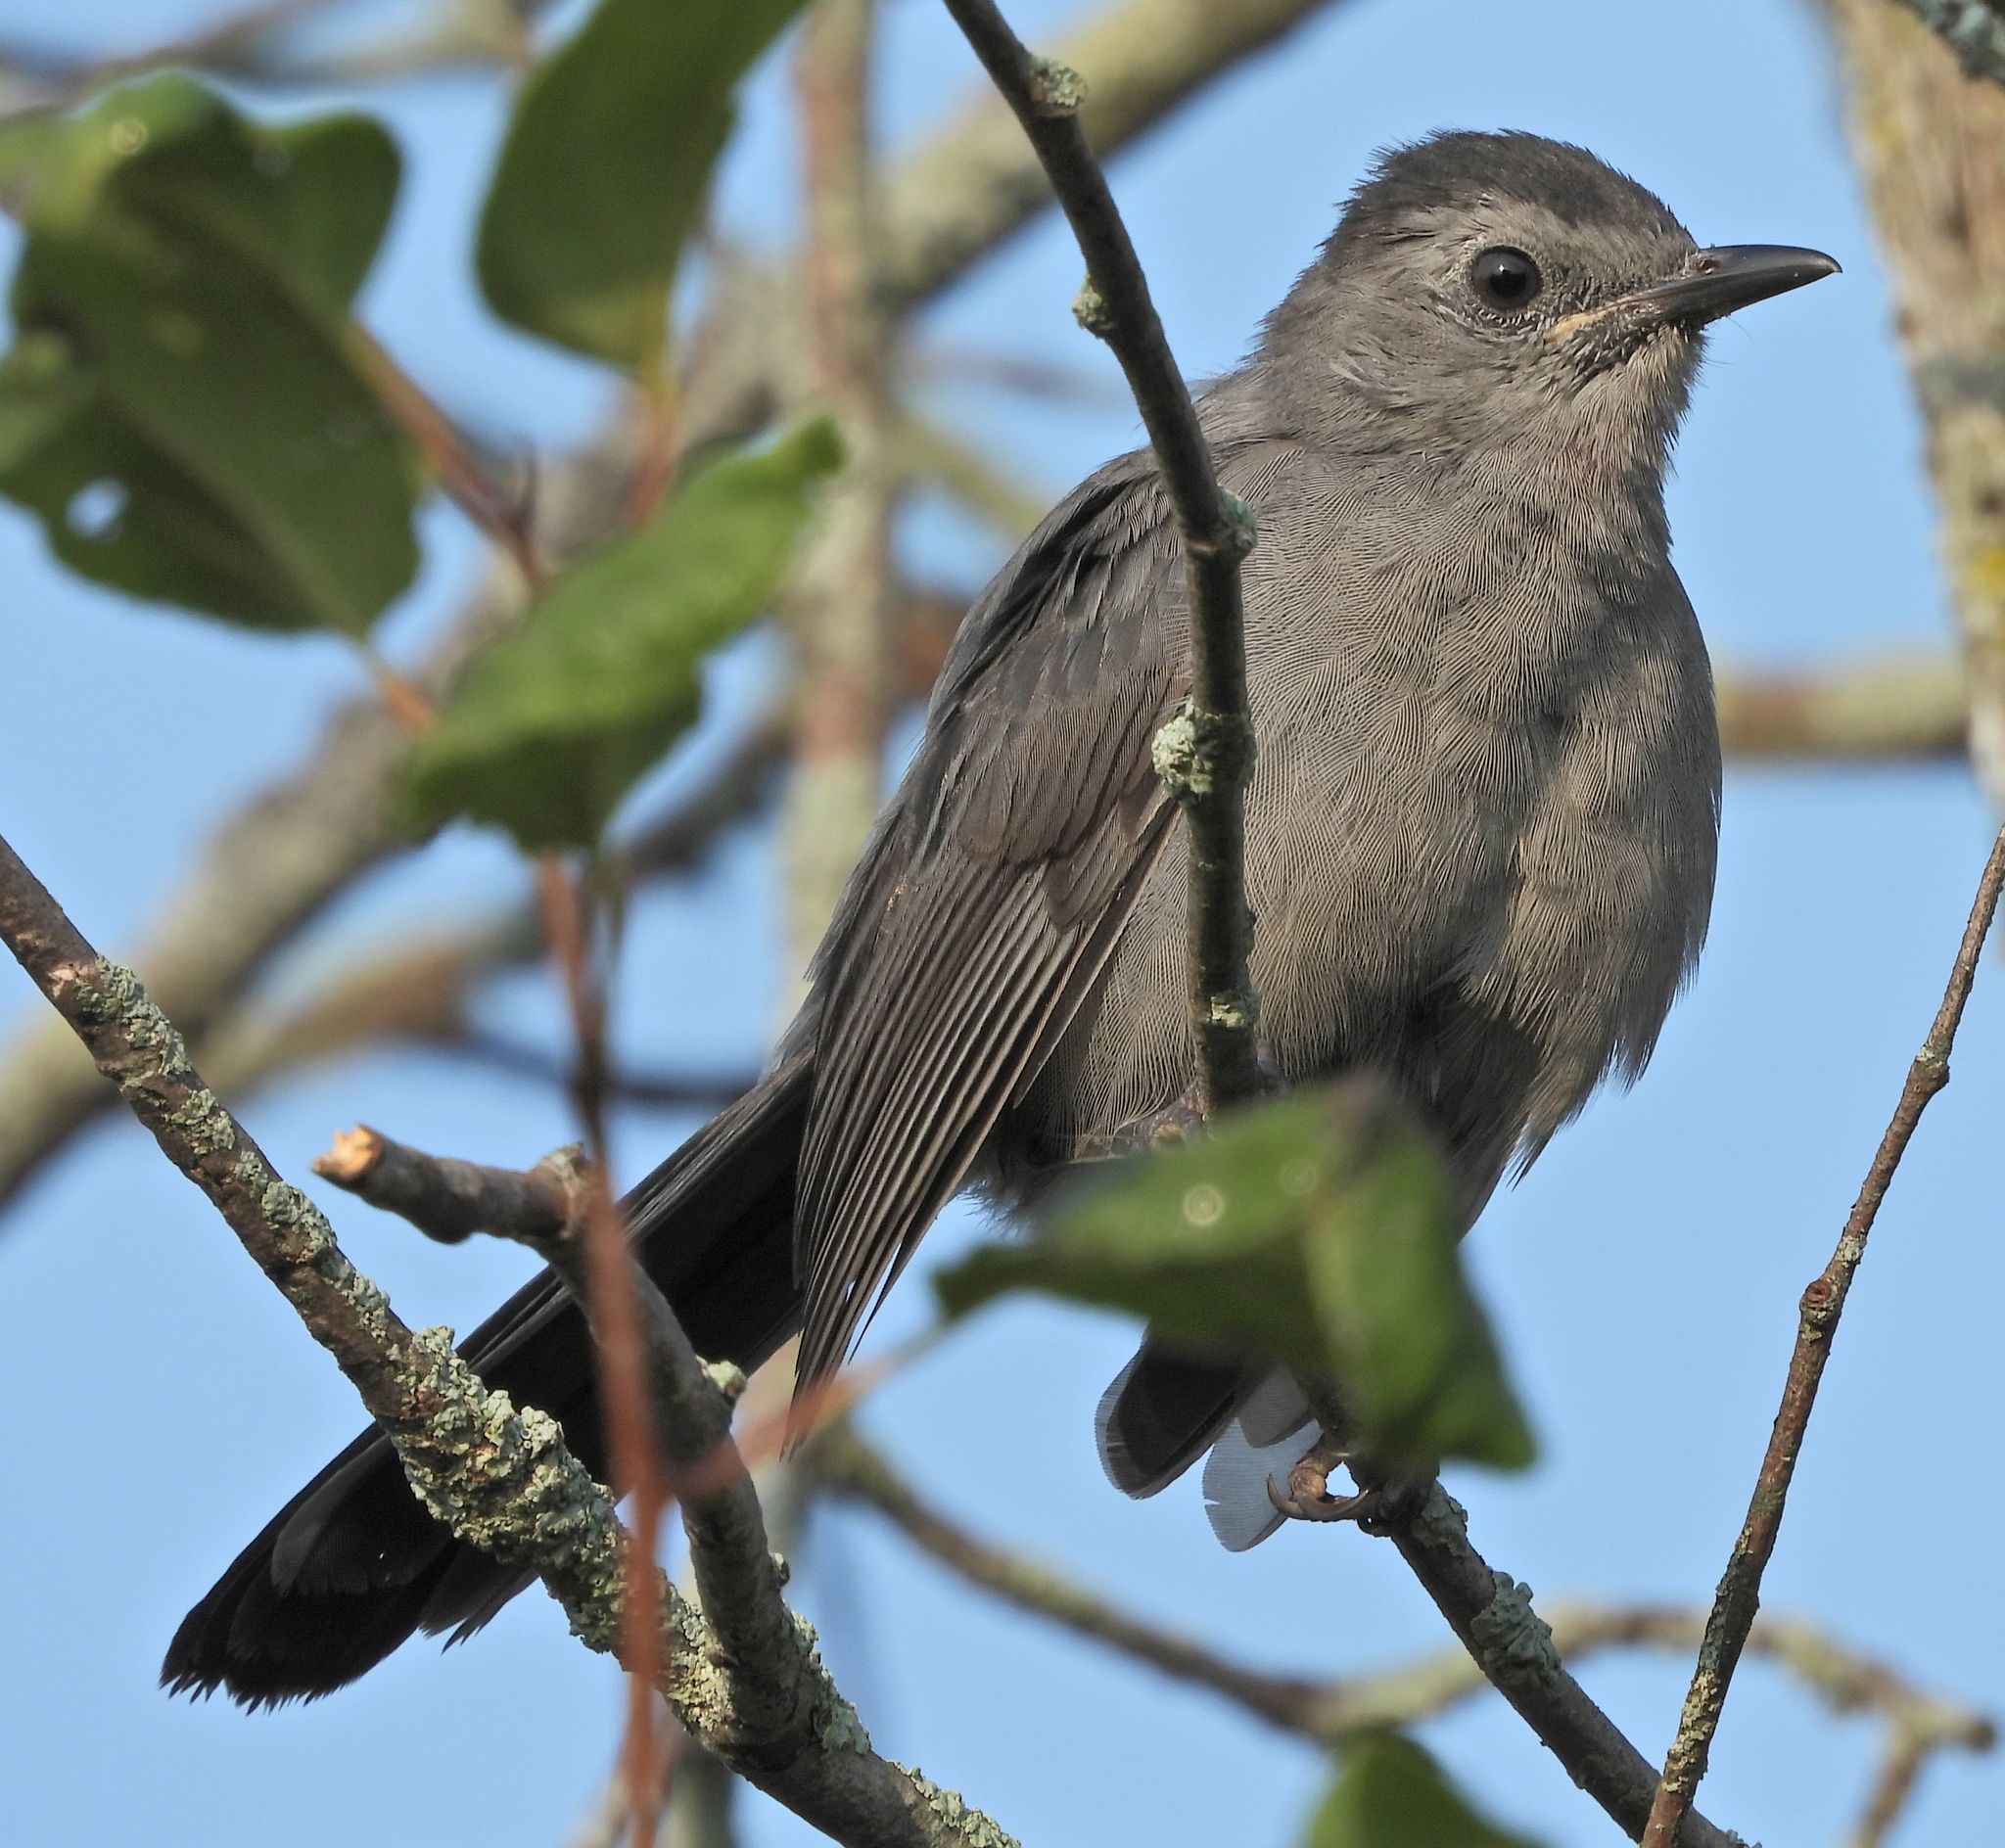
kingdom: Animalia
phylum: Chordata
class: Aves
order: Passeriformes
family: Mimidae
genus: Dumetella
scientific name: Dumetella carolinensis
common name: Gray catbird
